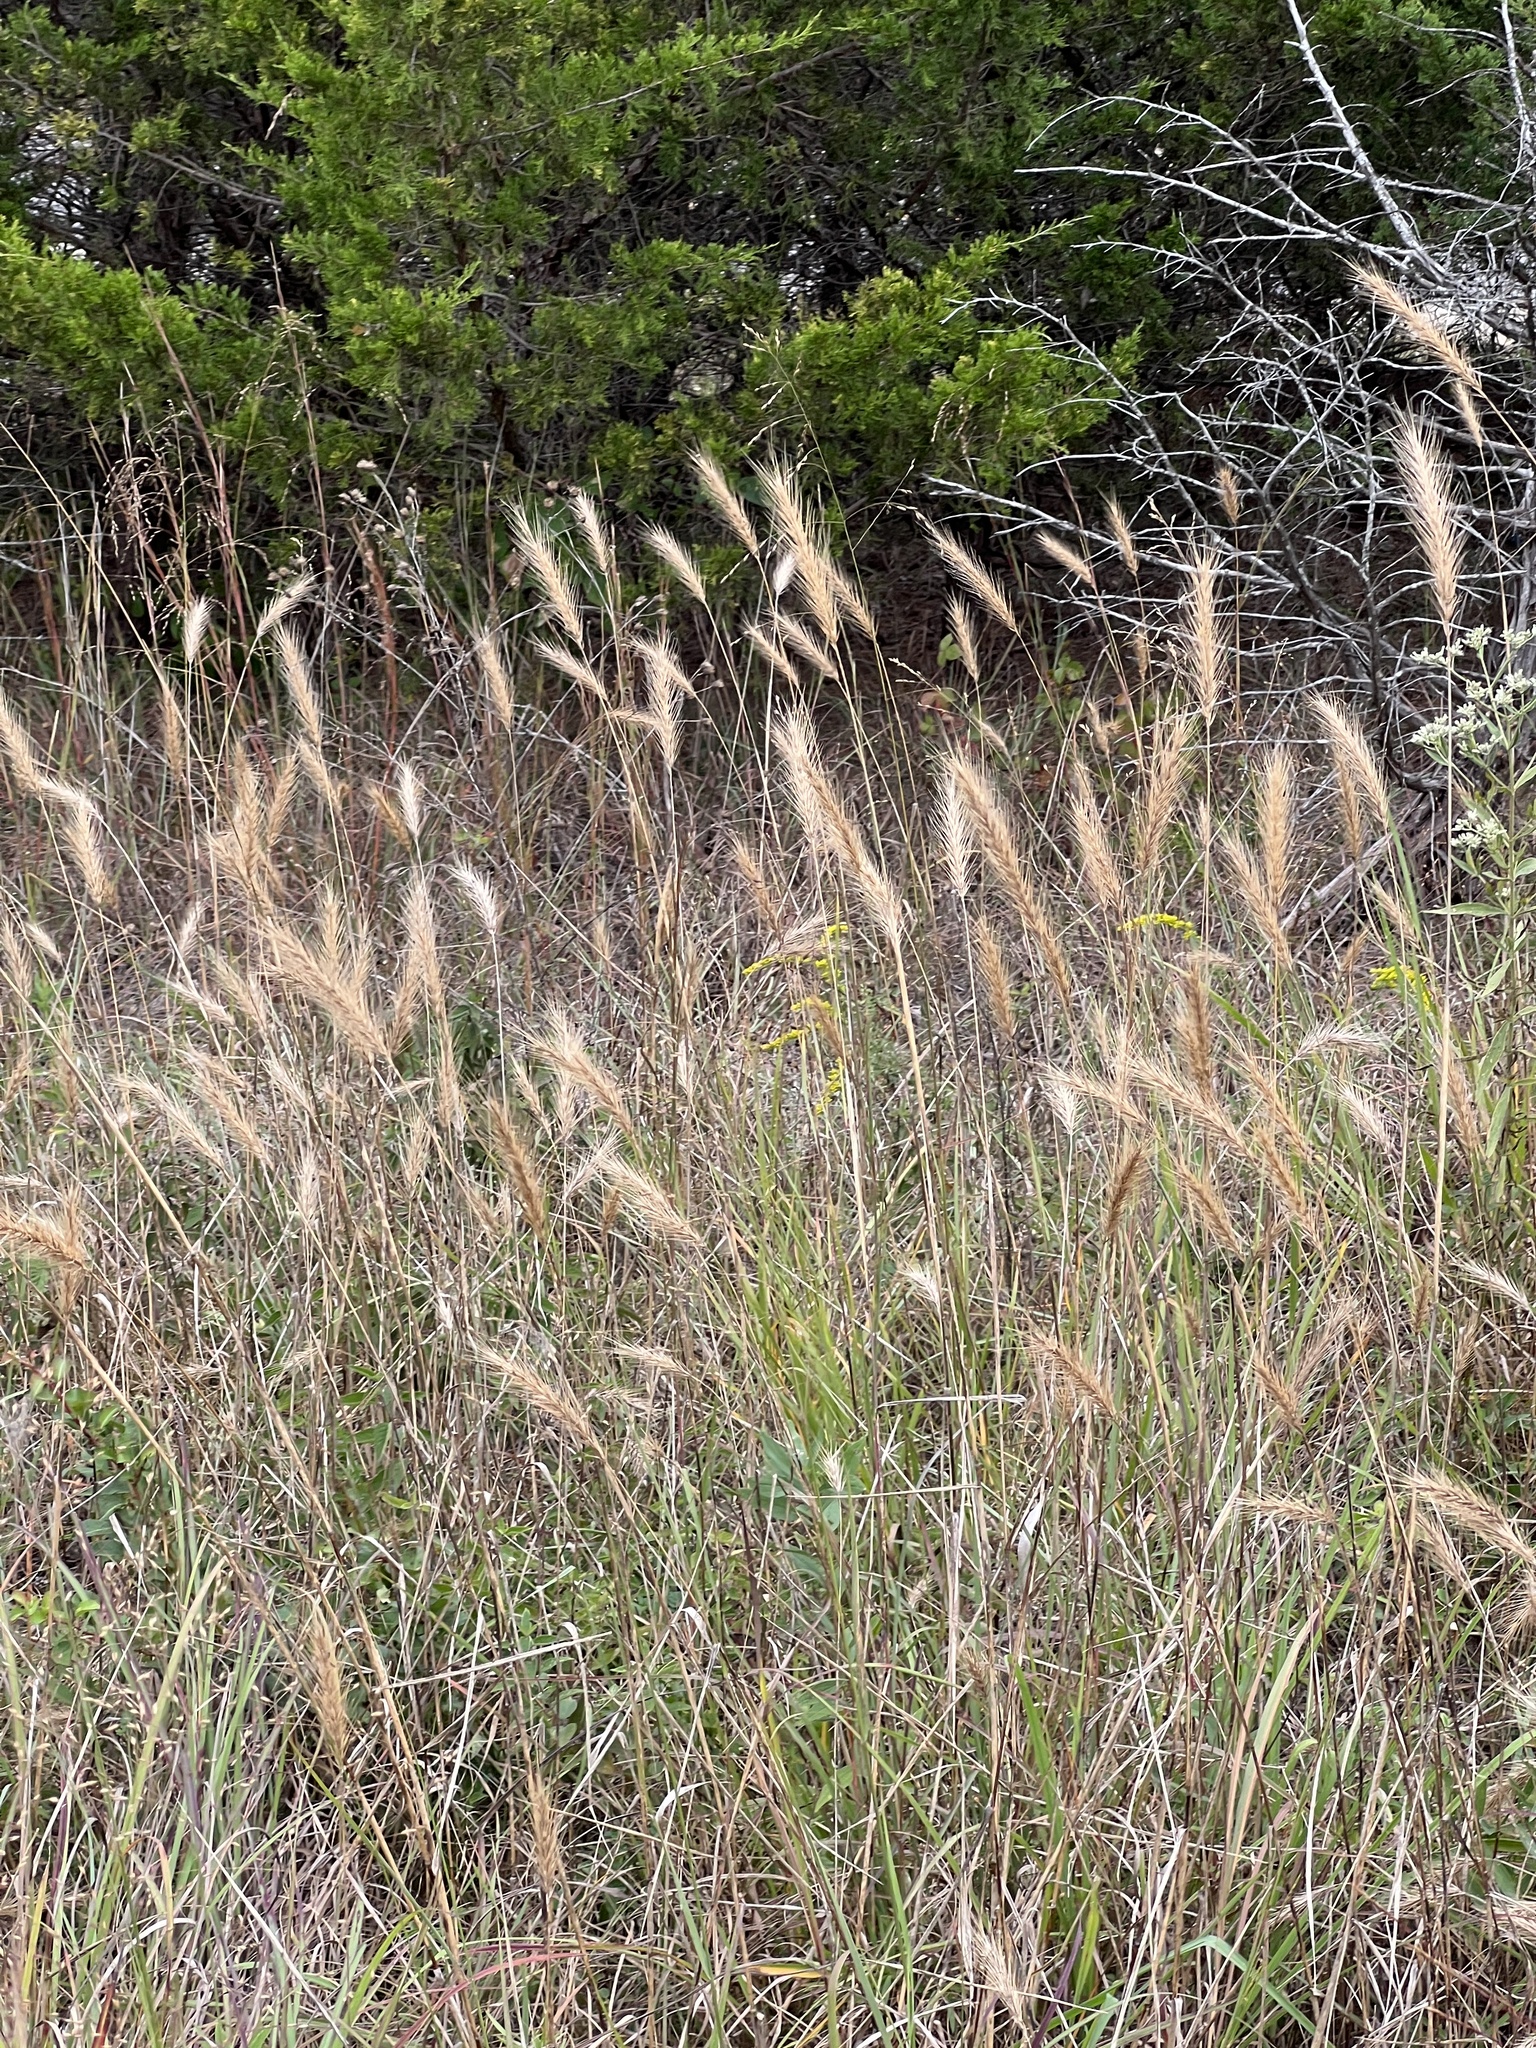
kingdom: Plantae
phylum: Tracheophyta
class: Liliopsida
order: Poales
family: Poaceae
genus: Elymus
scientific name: Elymus virginicus
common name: Common eastern wildrye
